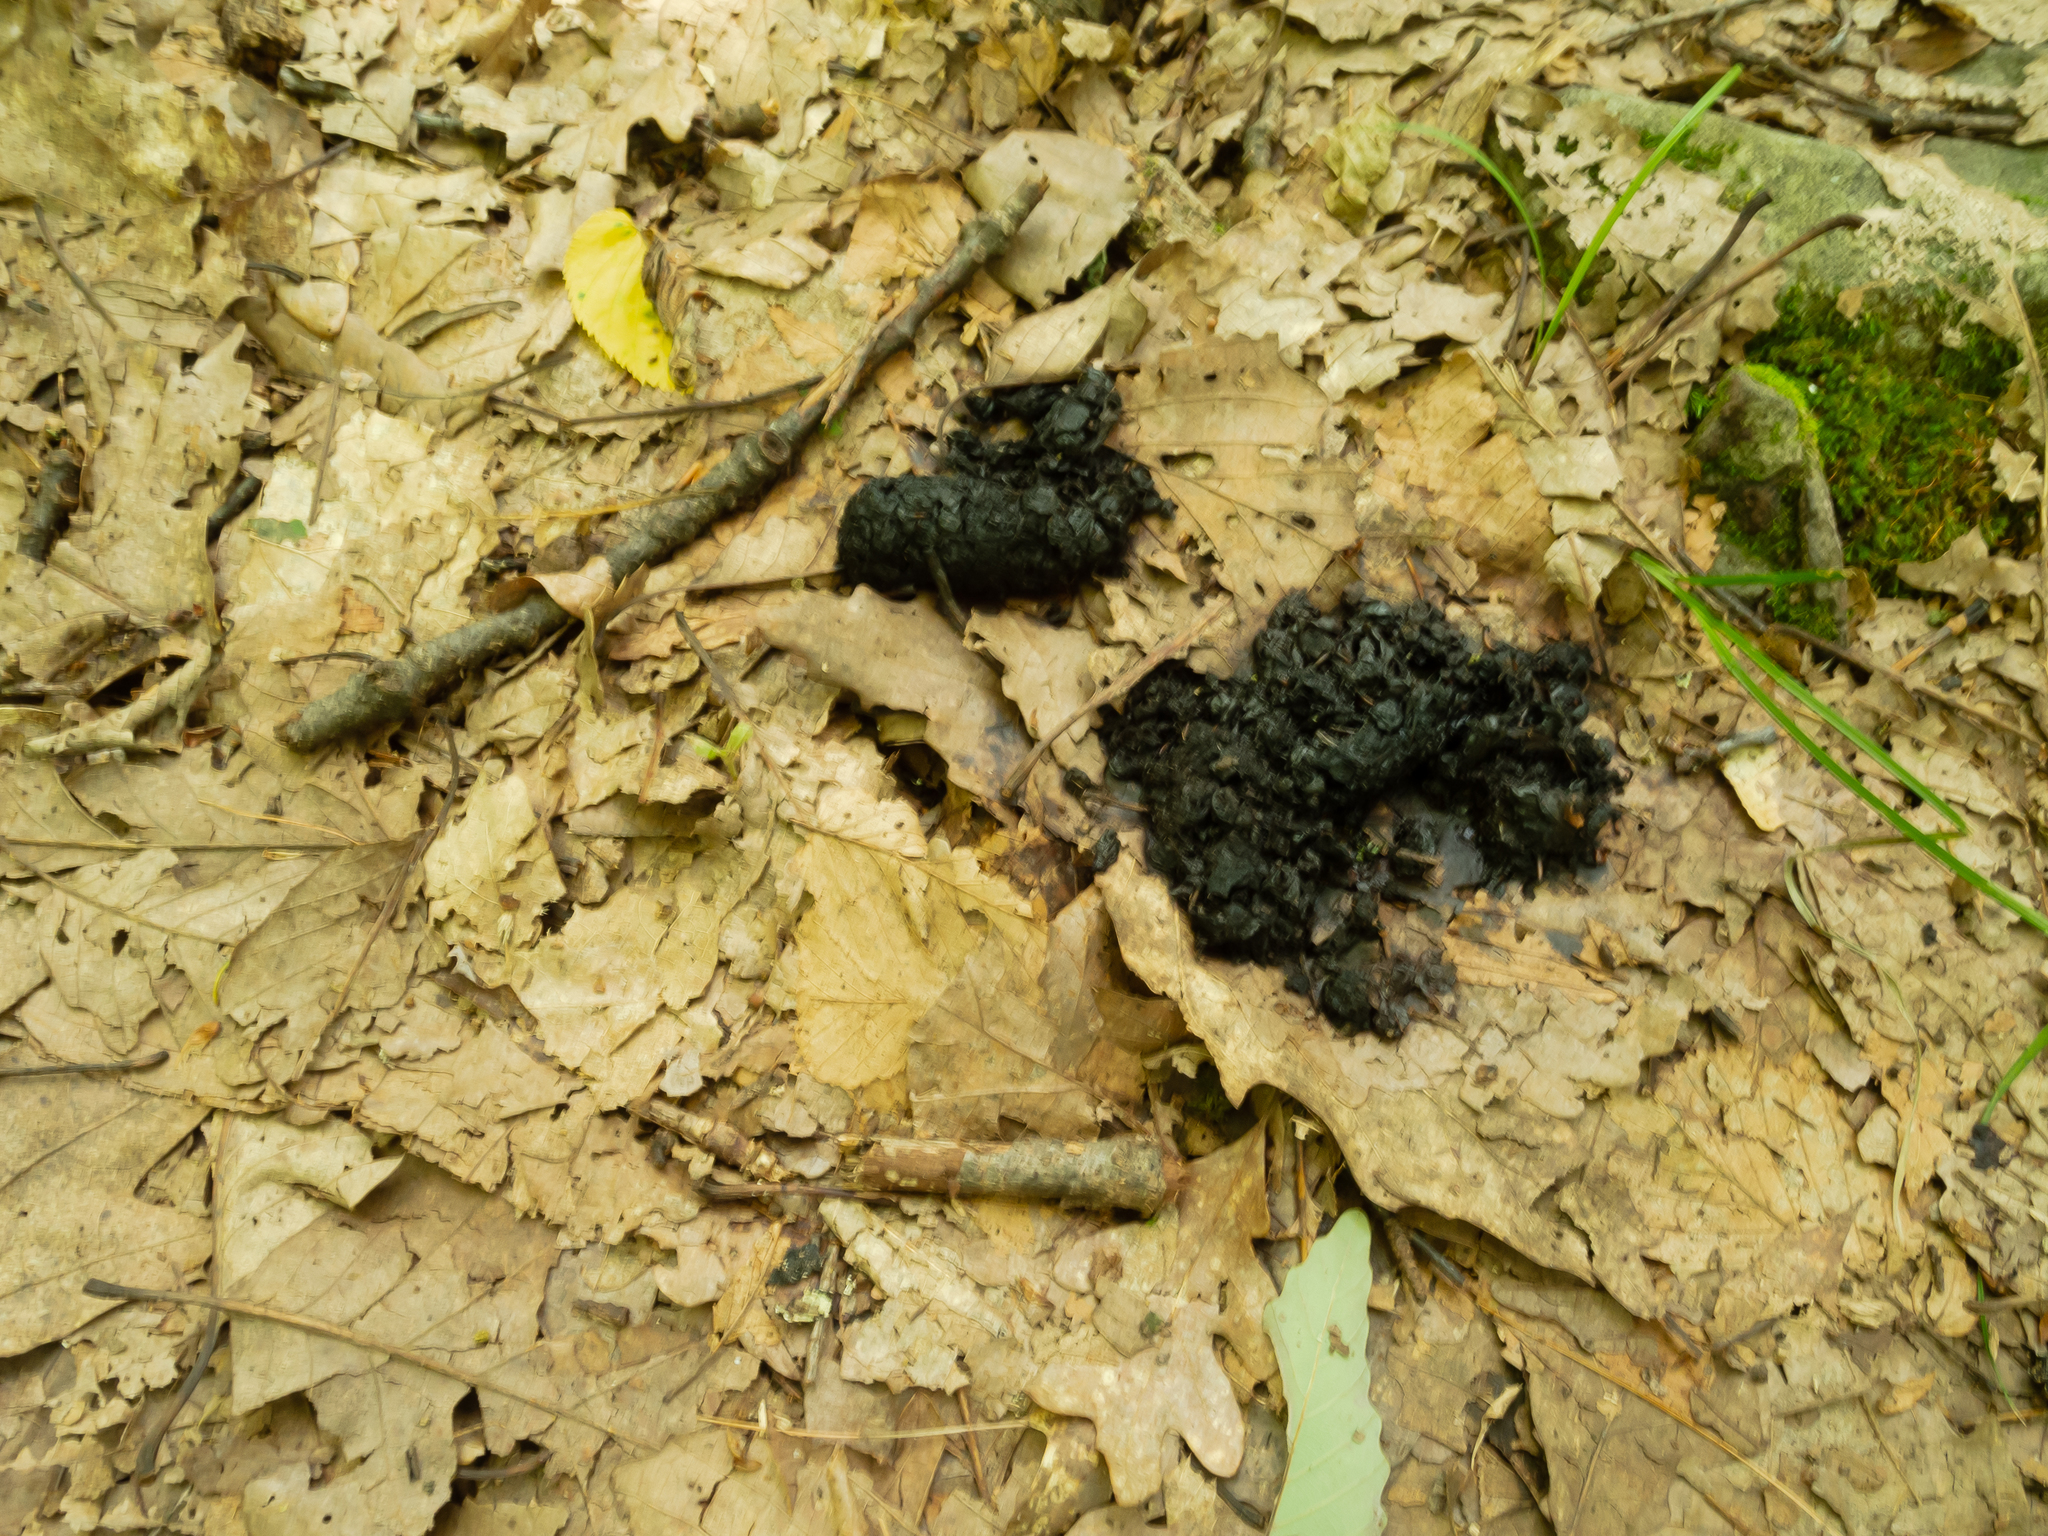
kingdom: Animalia
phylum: Chordata
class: Mammalia
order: Carnivora
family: Ursidae
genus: Ursus
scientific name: Ursus americanus
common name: American black bear
